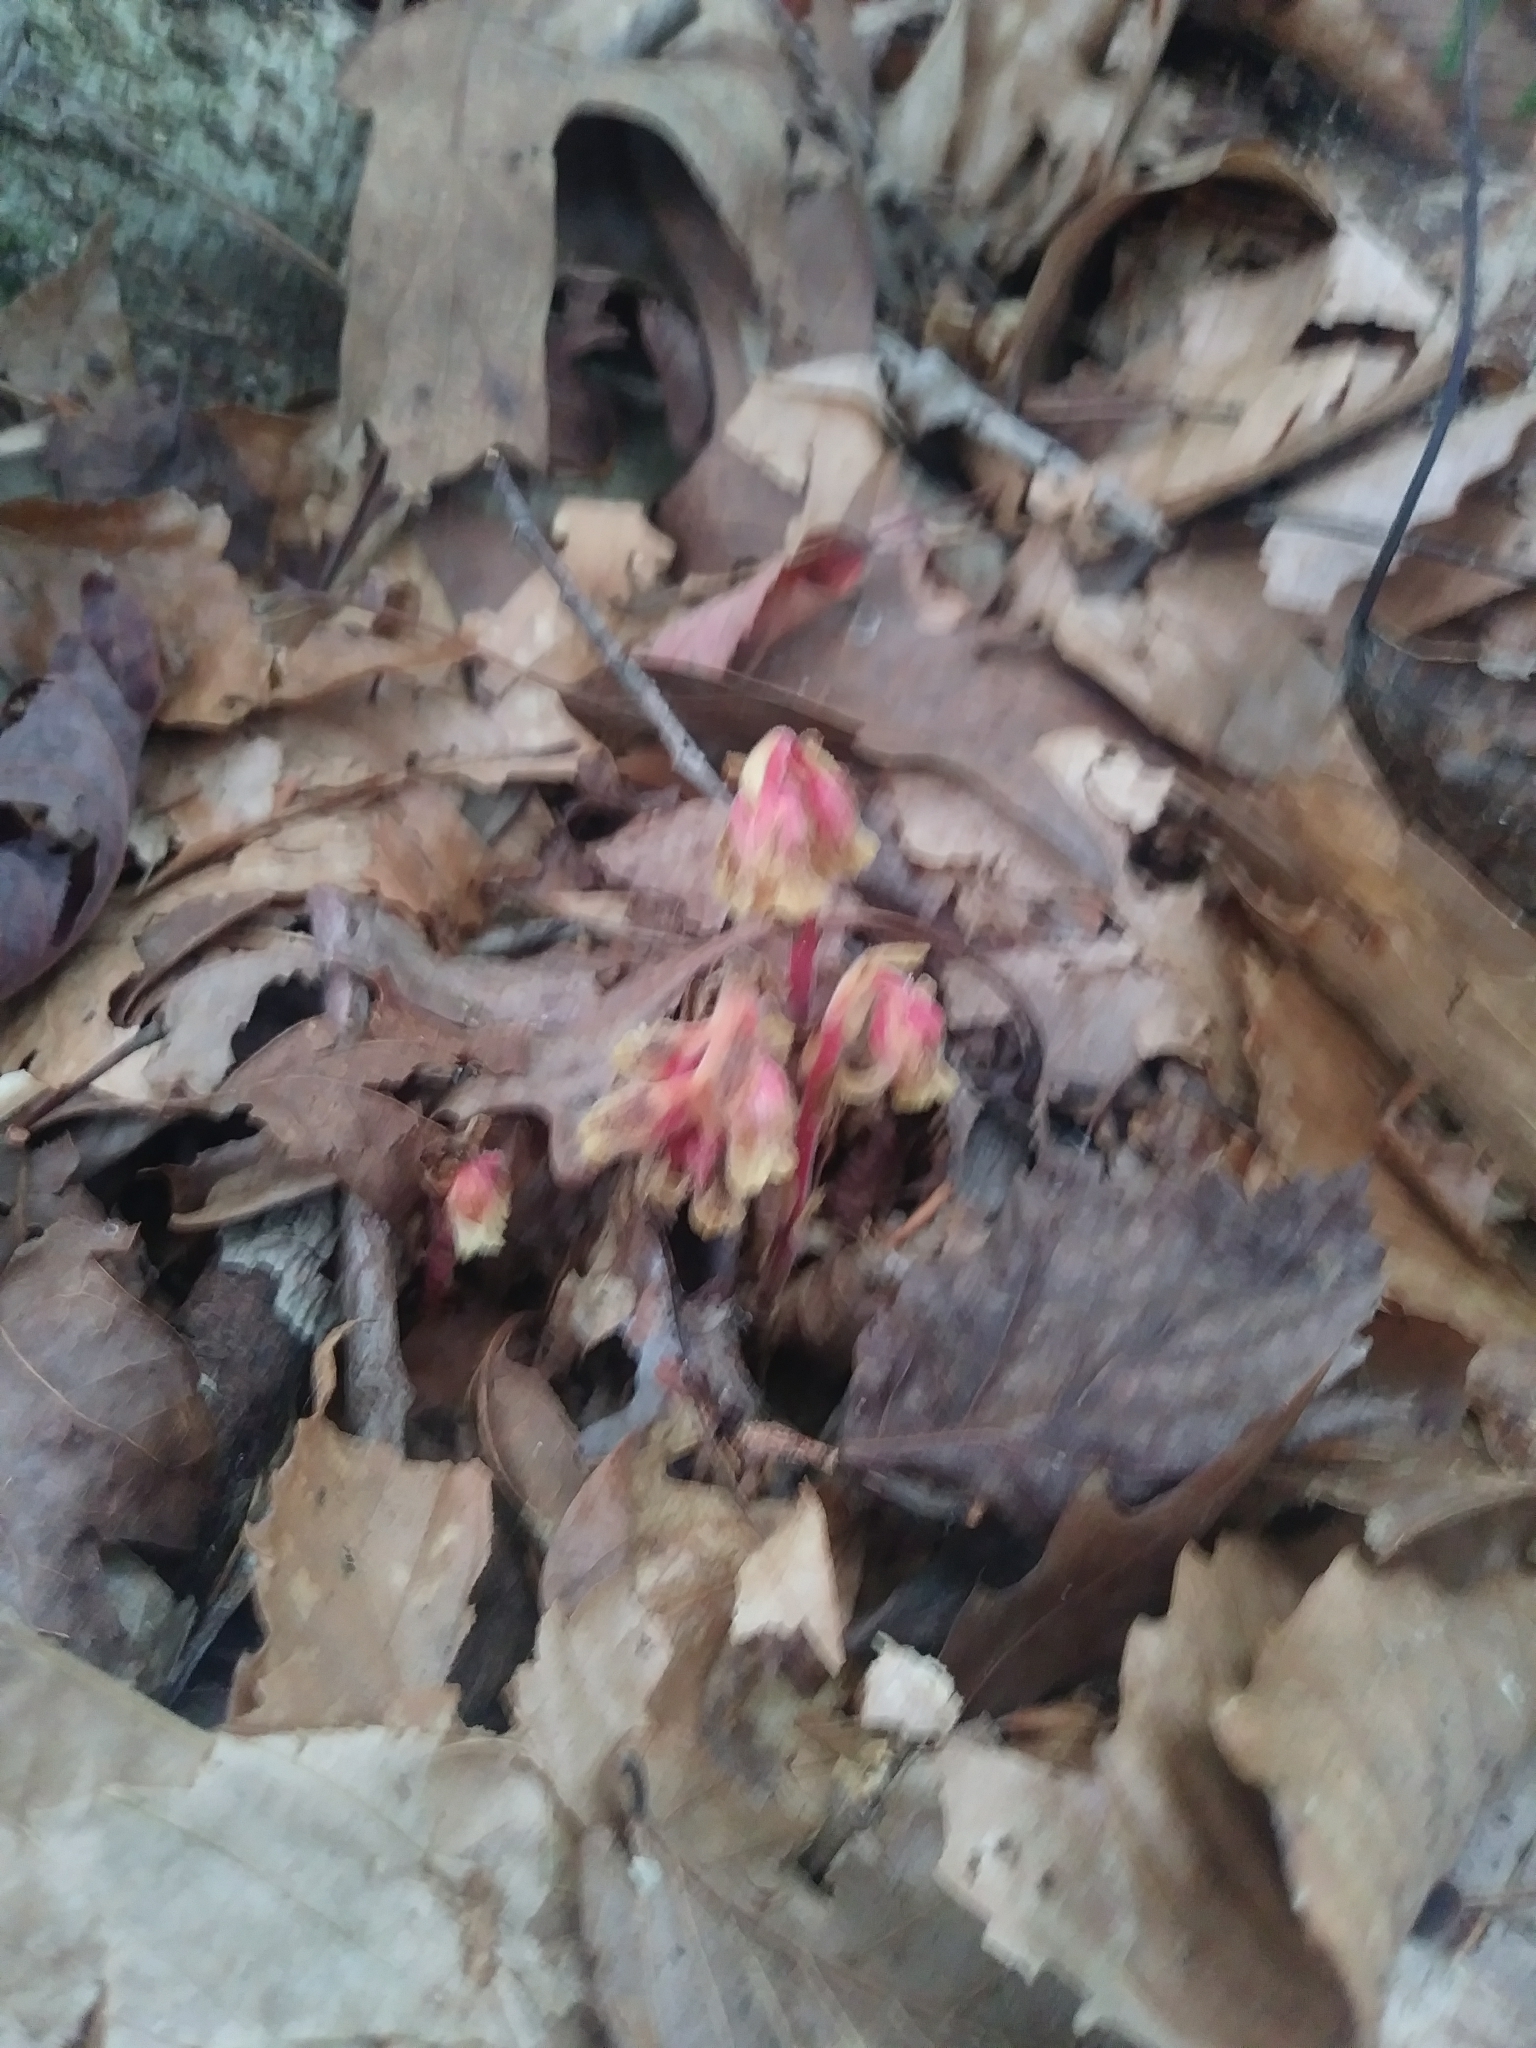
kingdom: Plantae
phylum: Tracheophyta
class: Magnoliopsida
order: Ericales
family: Ericaceae
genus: Hypopitys
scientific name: Hypopitys monotropa
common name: Yellow bird's-nest
